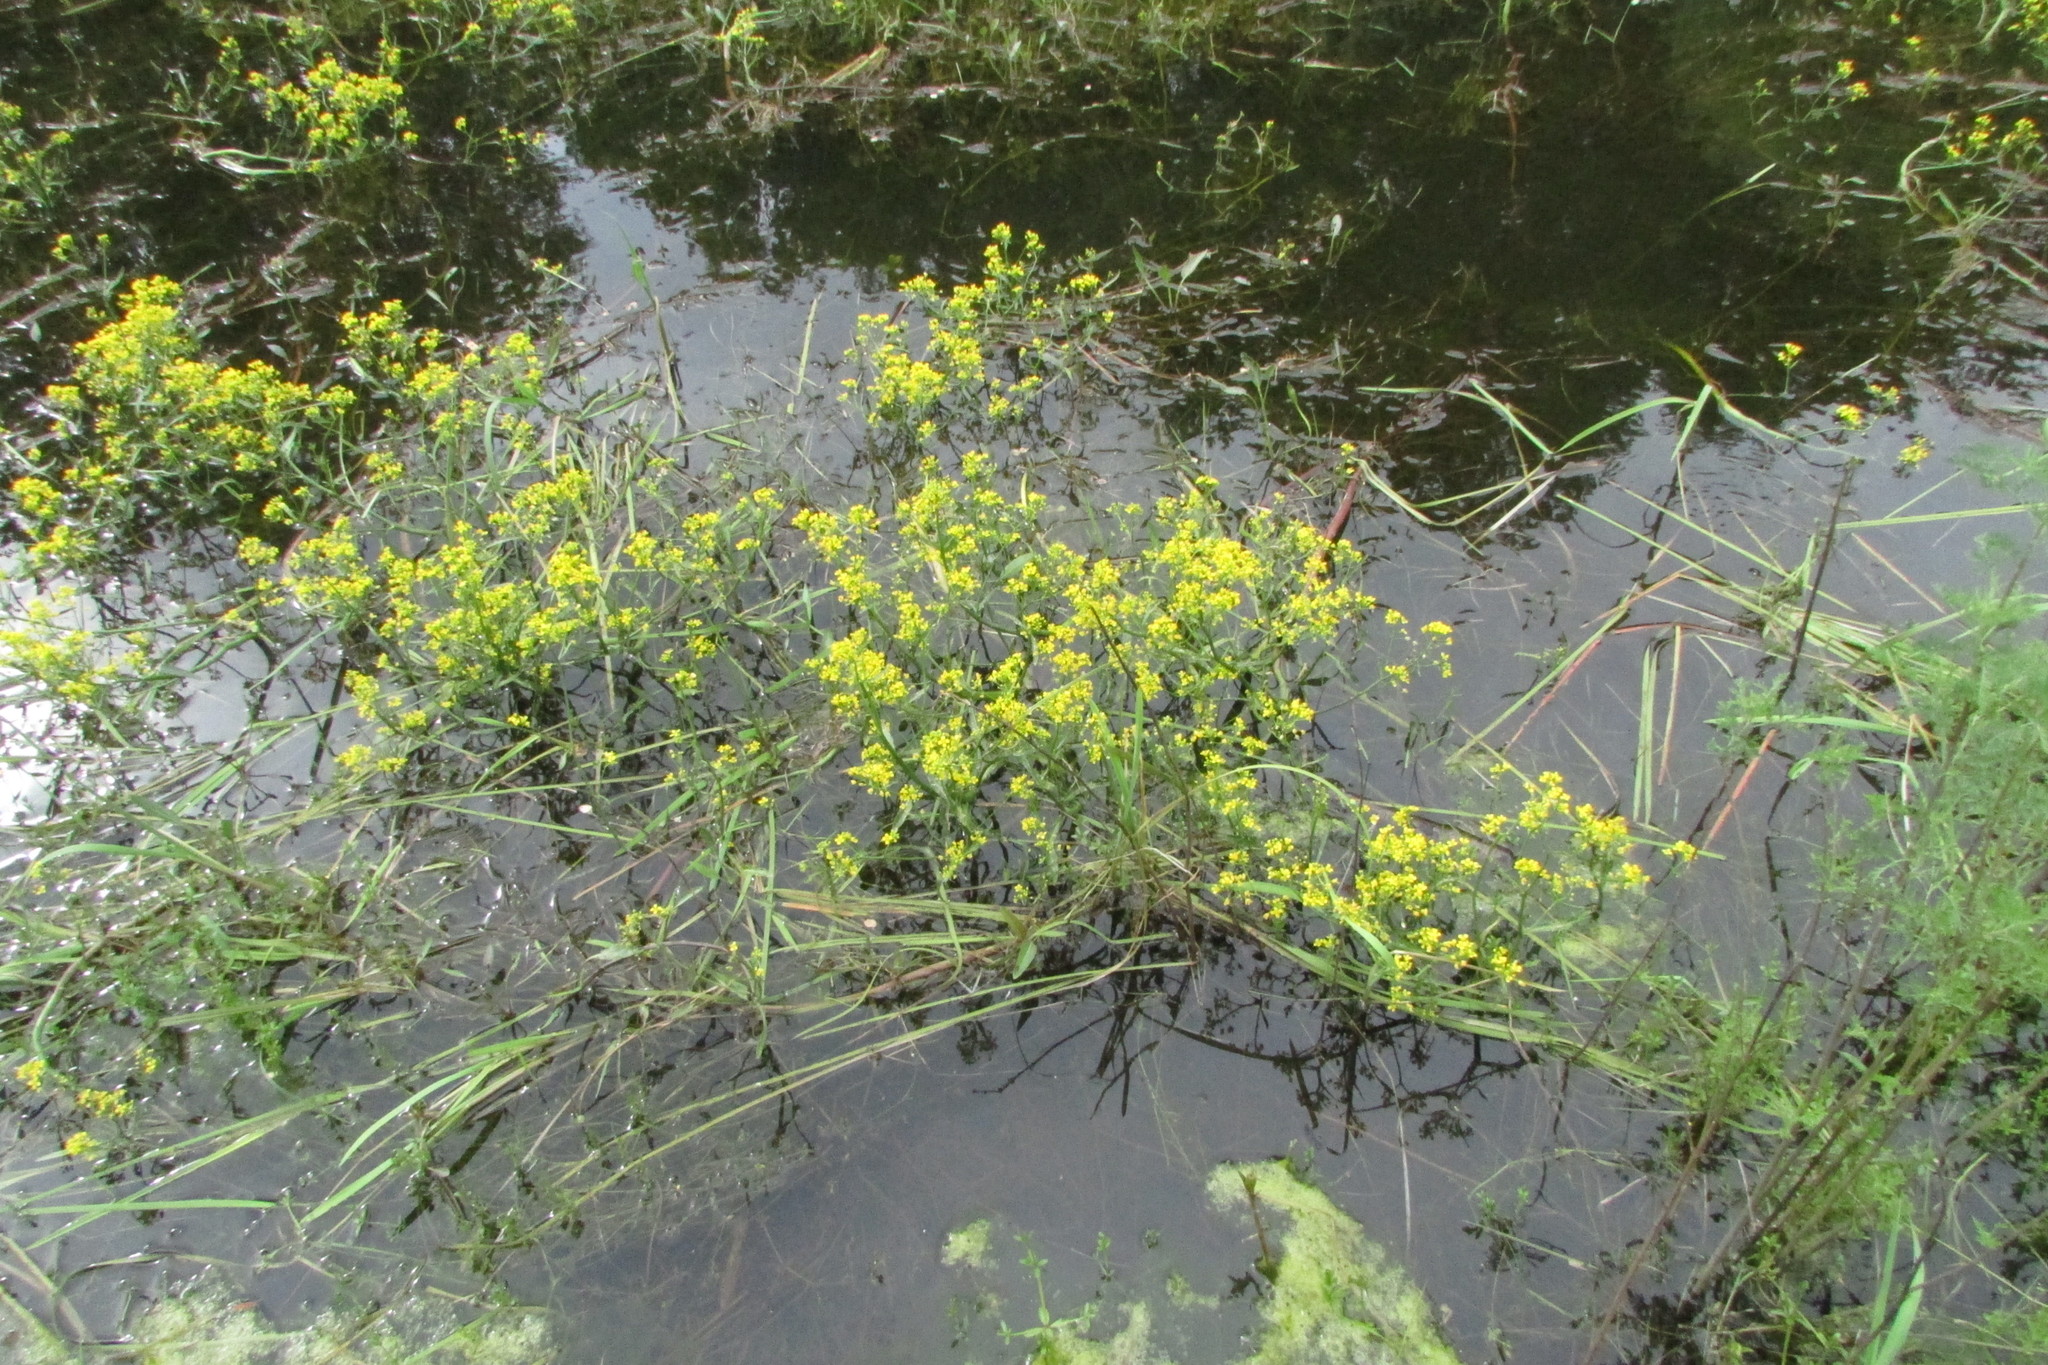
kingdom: Plantae
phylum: Tracheophyta
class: Magnoliopsida
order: Brassicales
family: Brassicaceae
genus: Rorippa
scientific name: Rorippa amphibia
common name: Great yellow-cress
